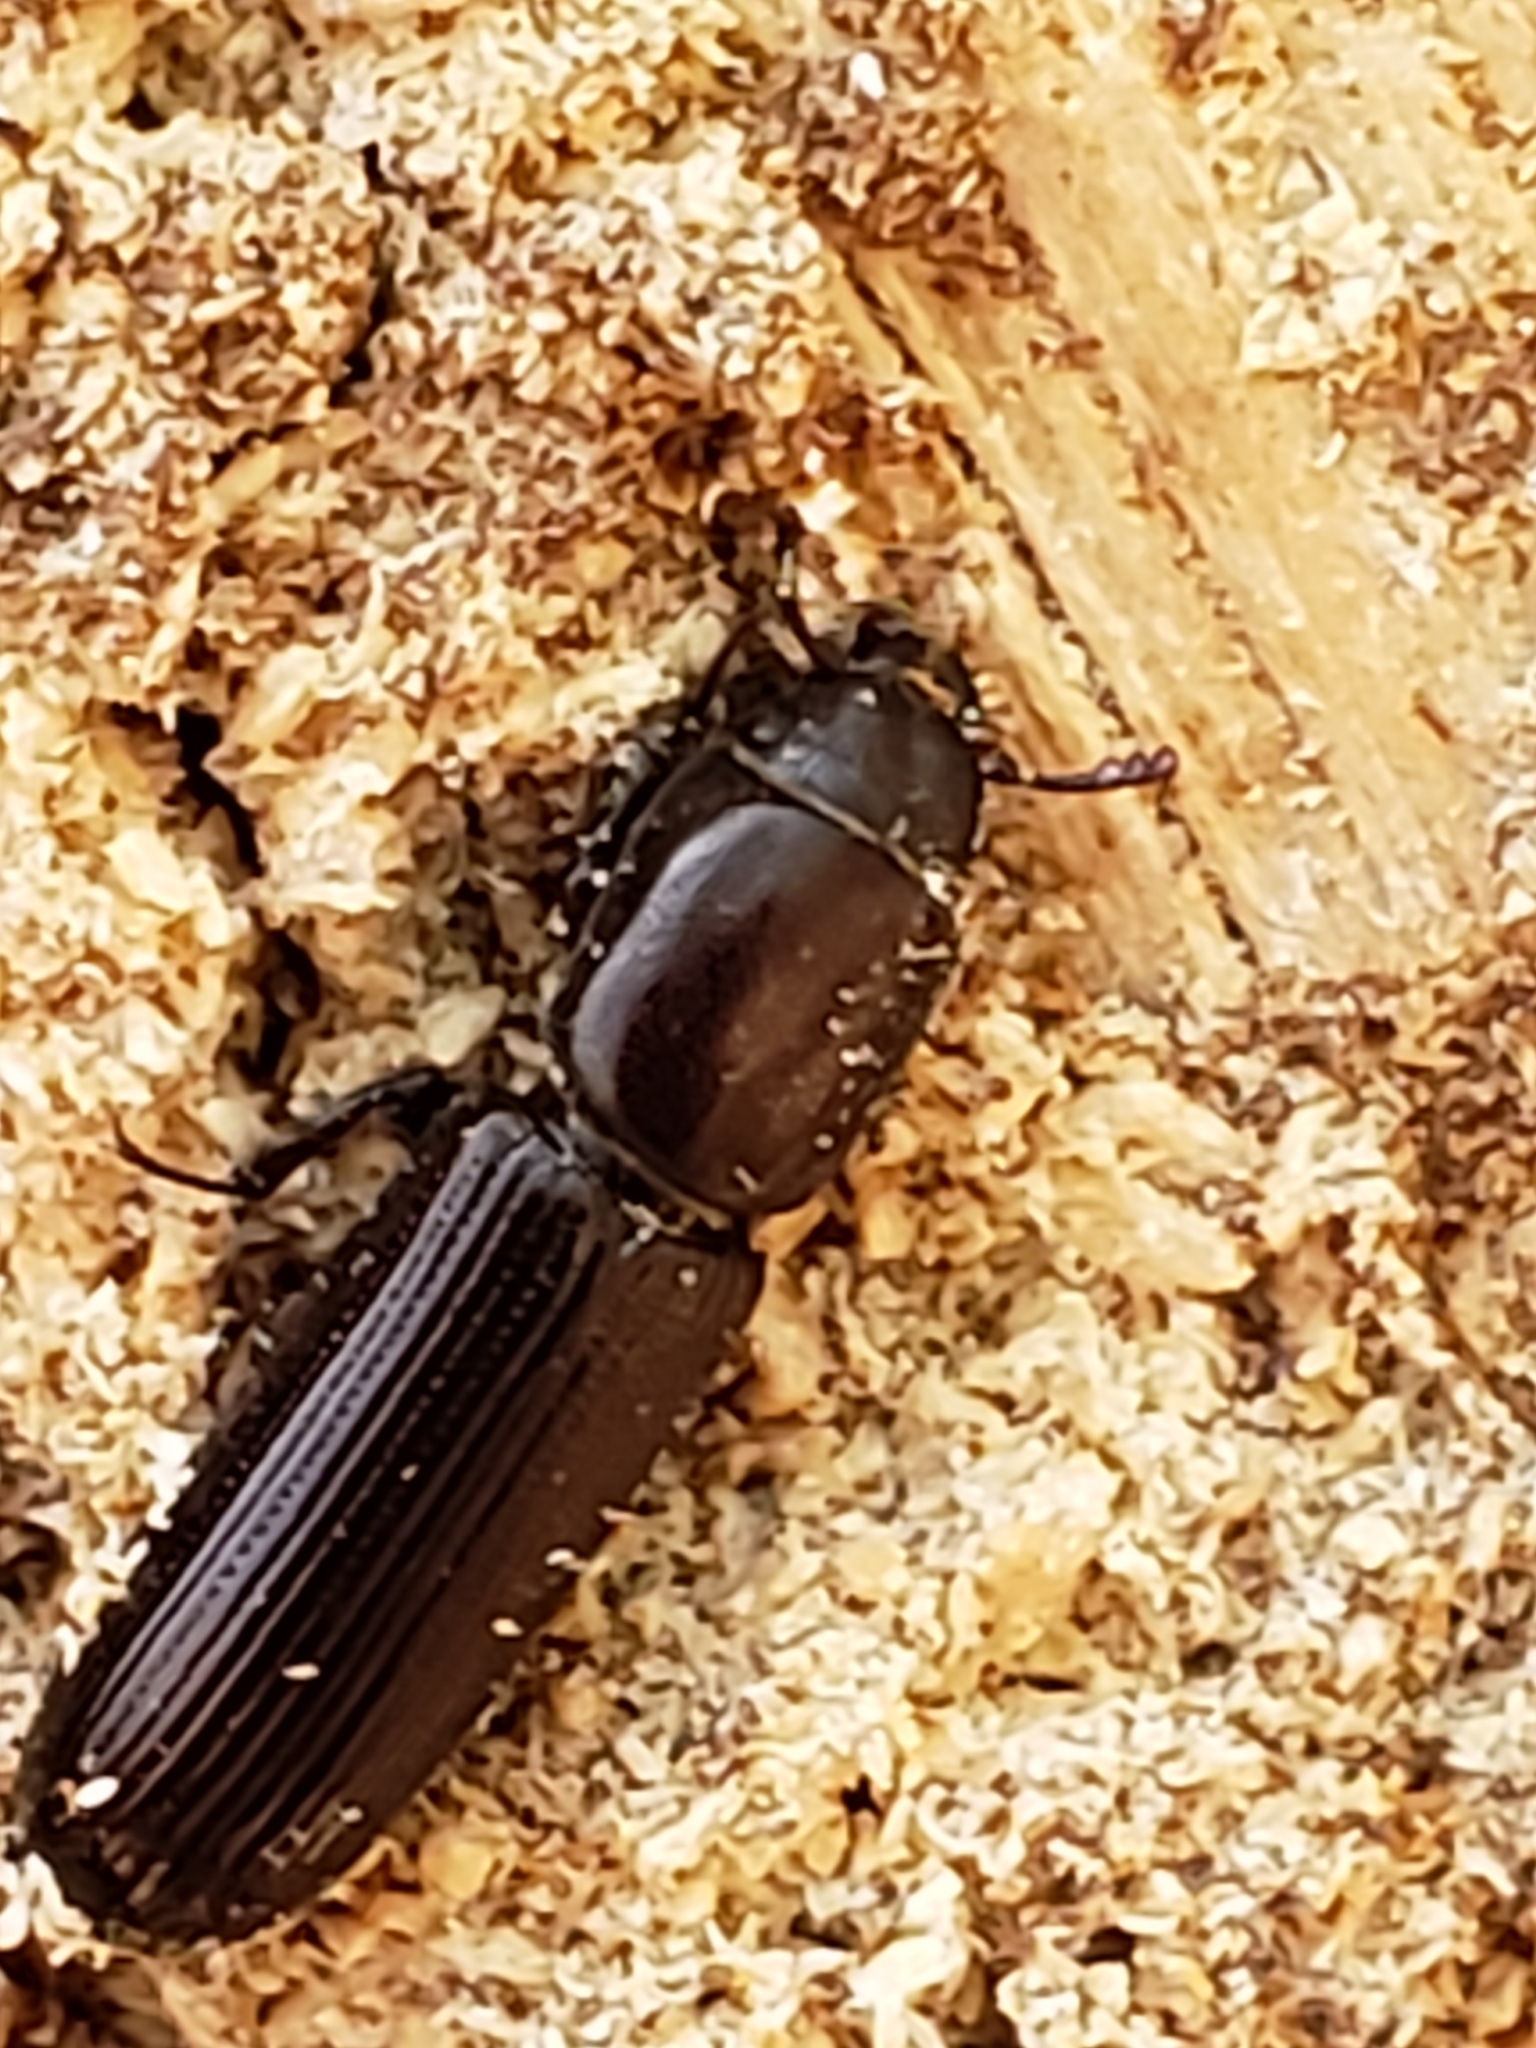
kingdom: Animalia
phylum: Arthropoda
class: Insecta
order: Coleoptera
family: Trogossitidae
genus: Airora
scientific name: Airora cylindrica
